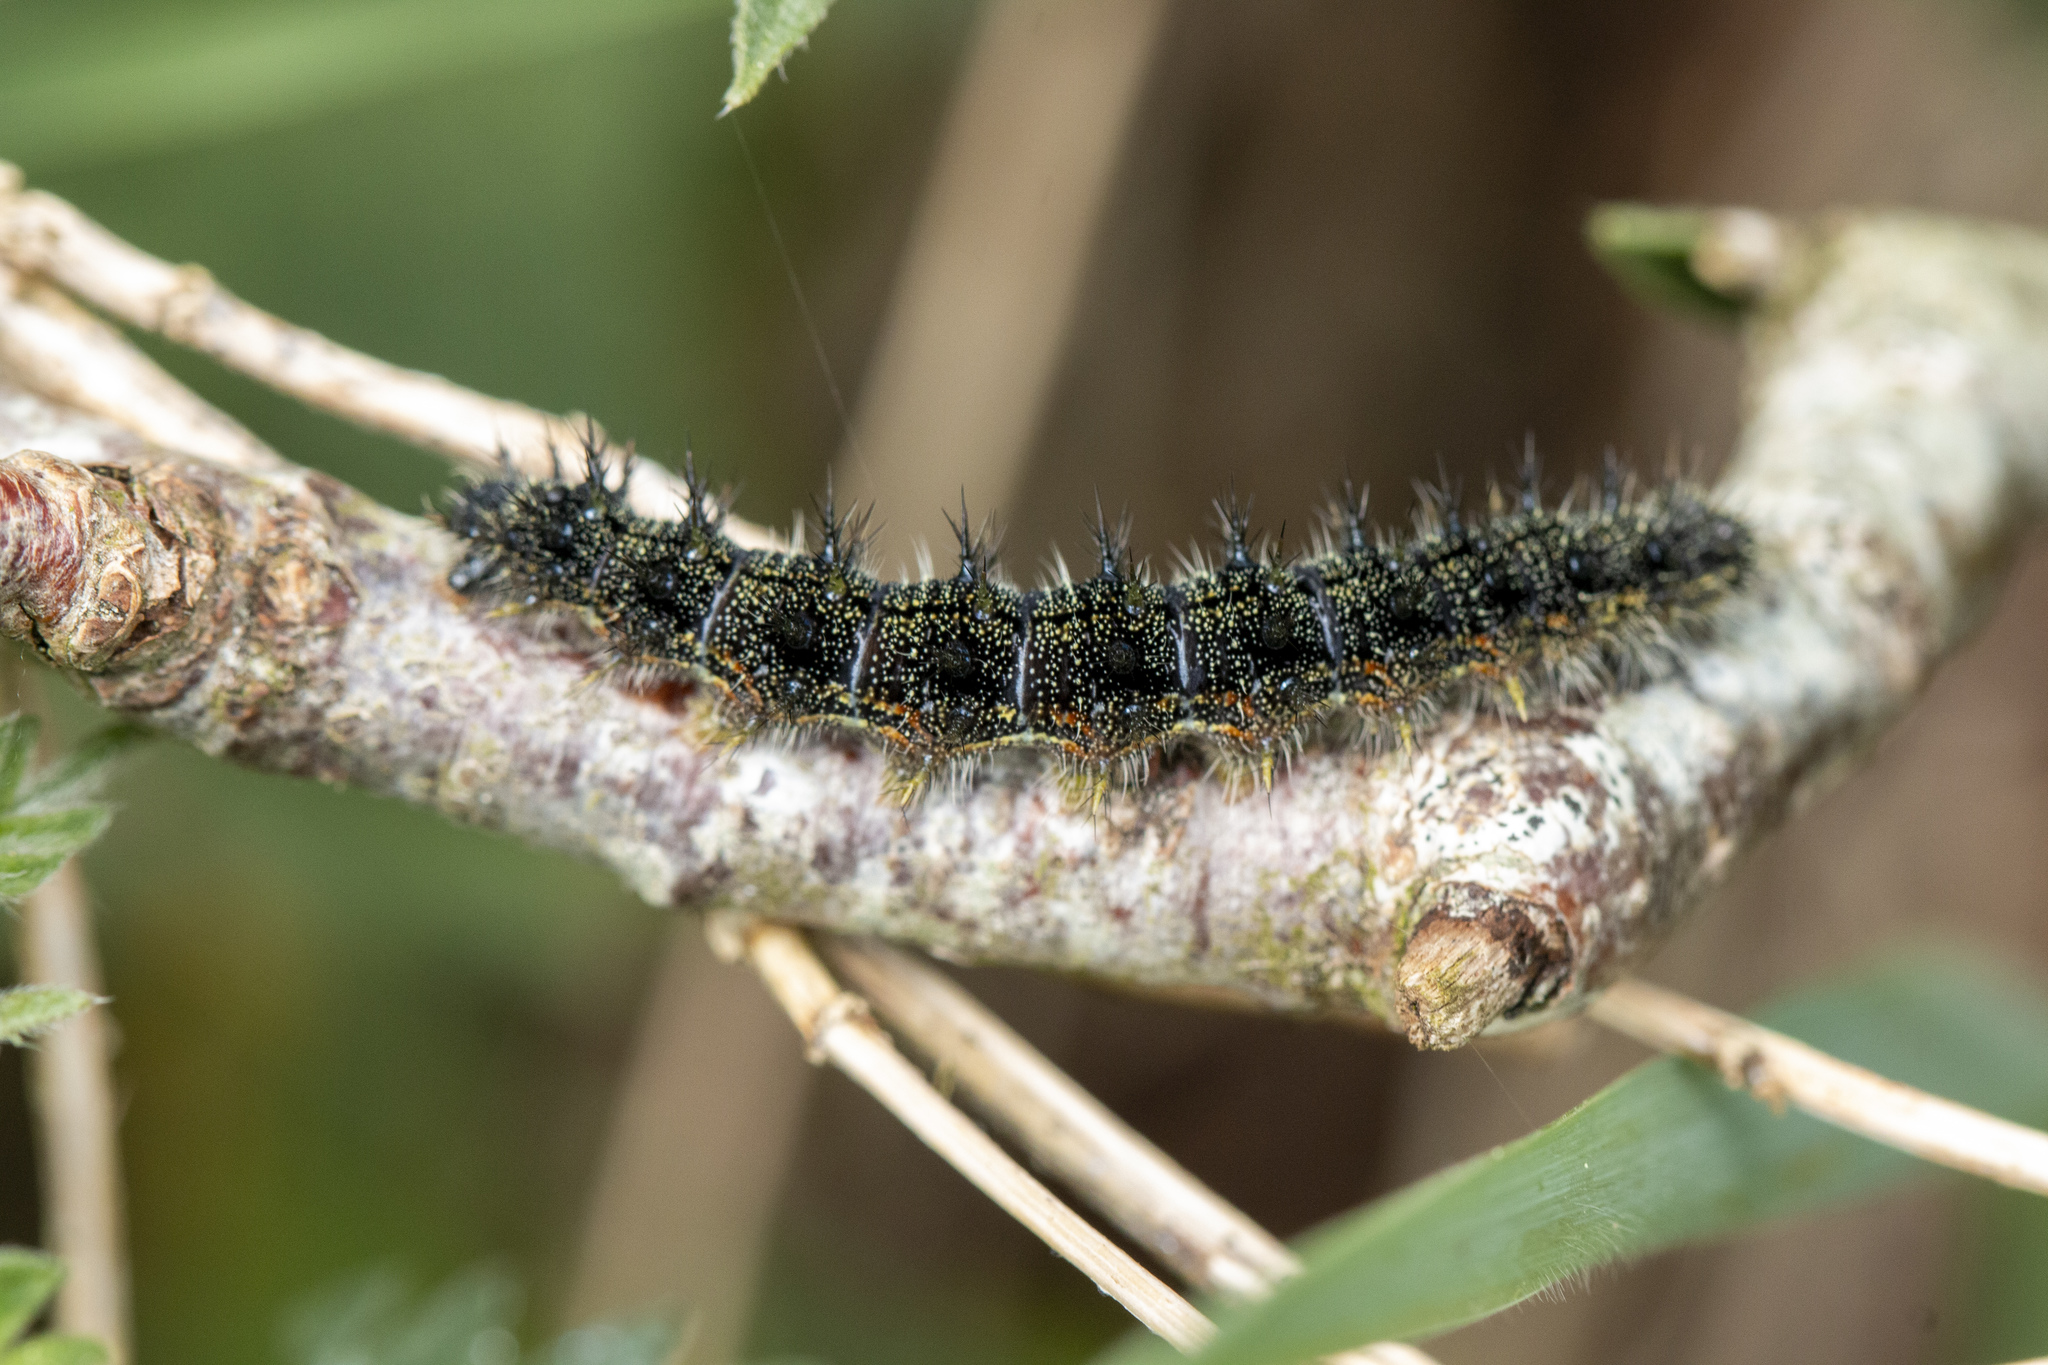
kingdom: Animalia
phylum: Arthropoda
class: Insecta
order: Lepidoptera
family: Nymphalidae
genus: Aglais
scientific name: Aglais urticae
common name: Small tortoiseshell
